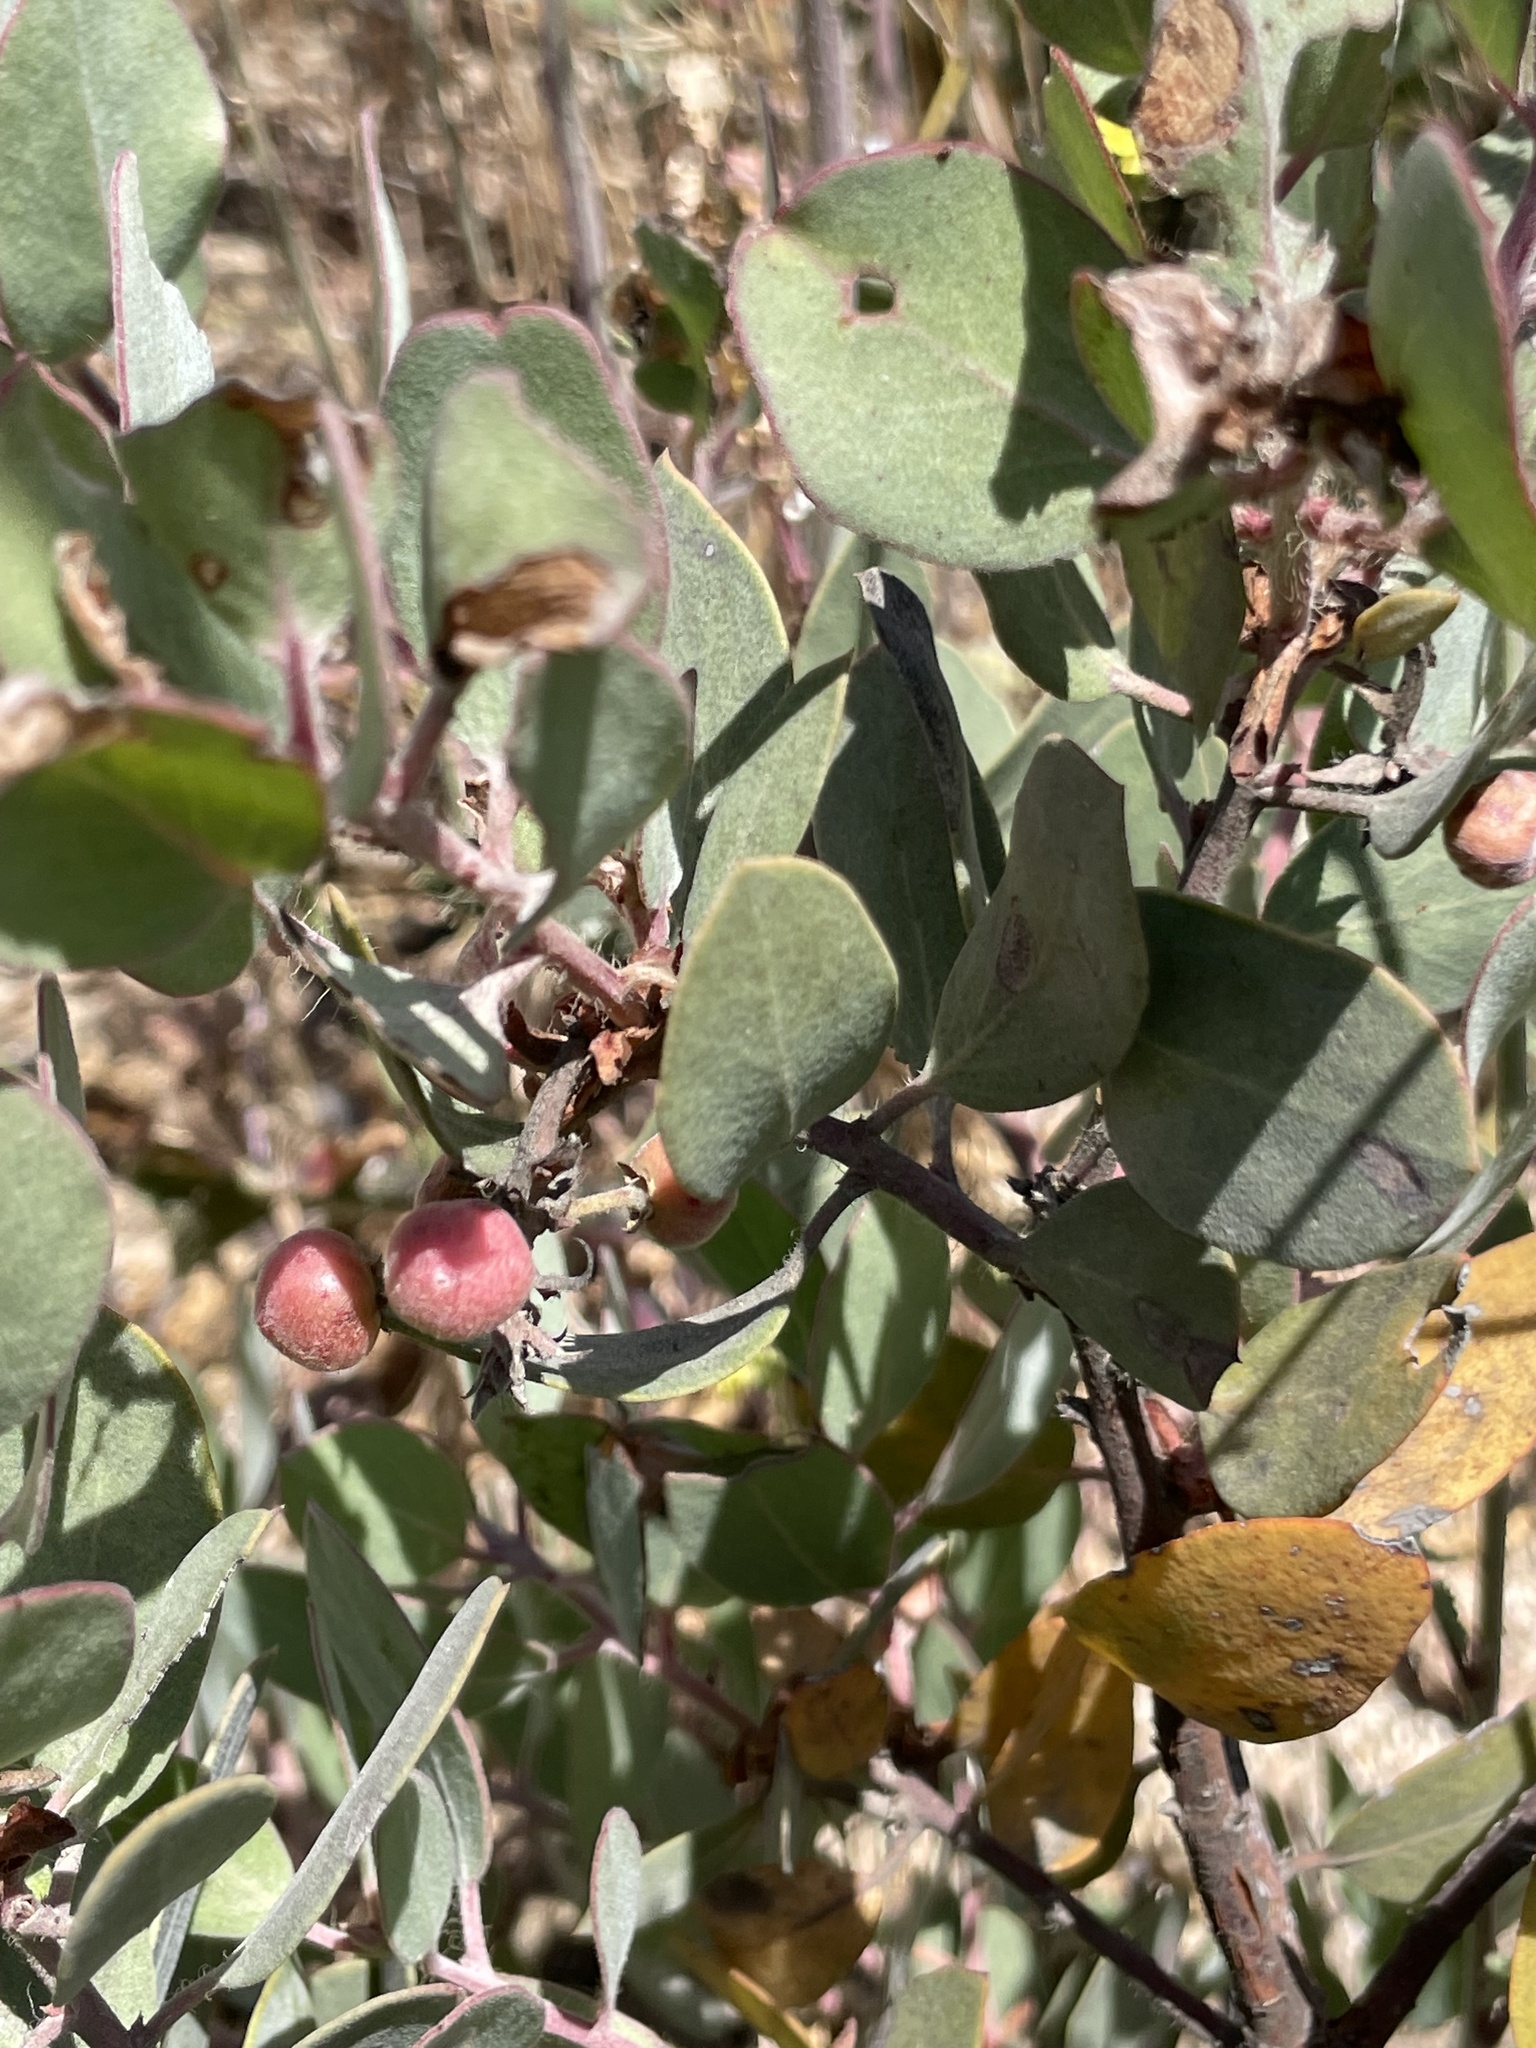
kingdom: Plantae
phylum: Tracheophyta
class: Magnoliopsida
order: Ericales
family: Ericaceae
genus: Arctostaphylos
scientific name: Arctostaphylos glandulosa
